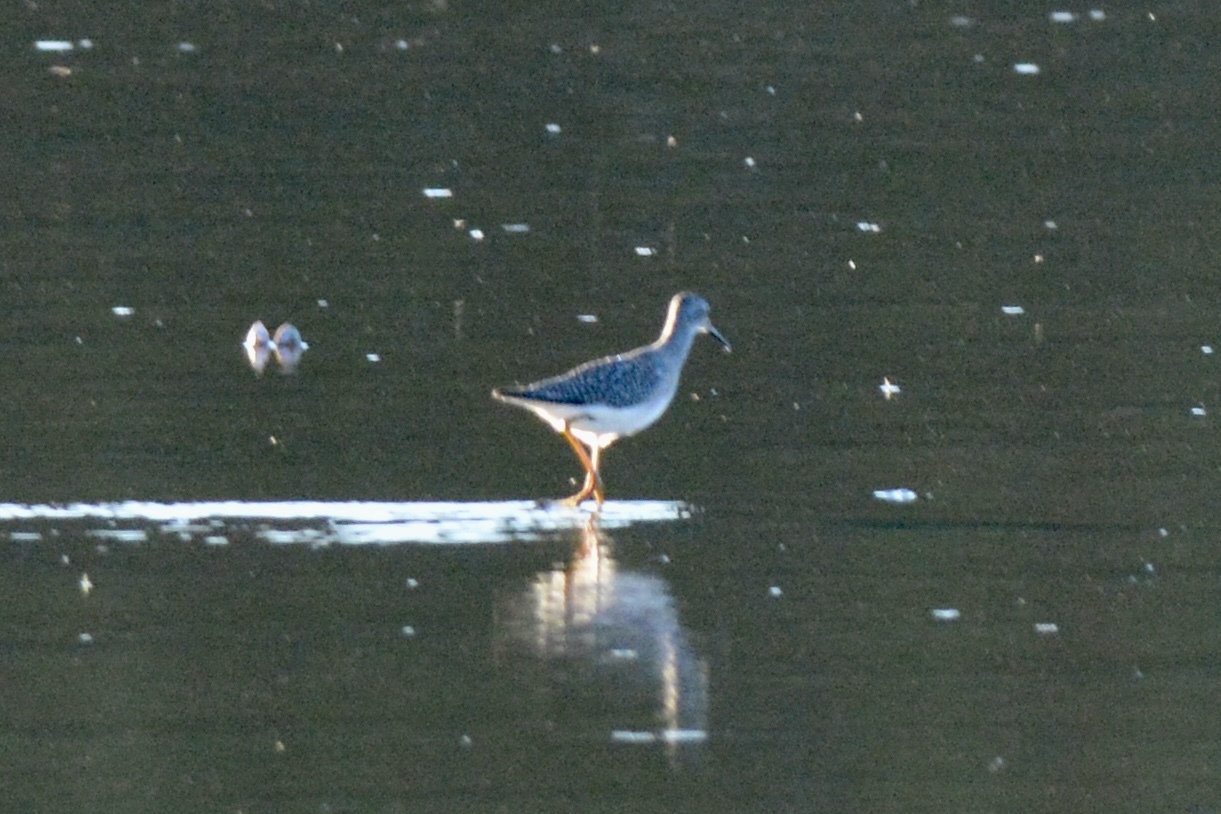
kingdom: Animalia
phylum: Chordata
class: Aves
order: Charadriiformes
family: Scolopacidae
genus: Tringa
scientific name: Tringa flavipes
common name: Lesser yellowlegs
